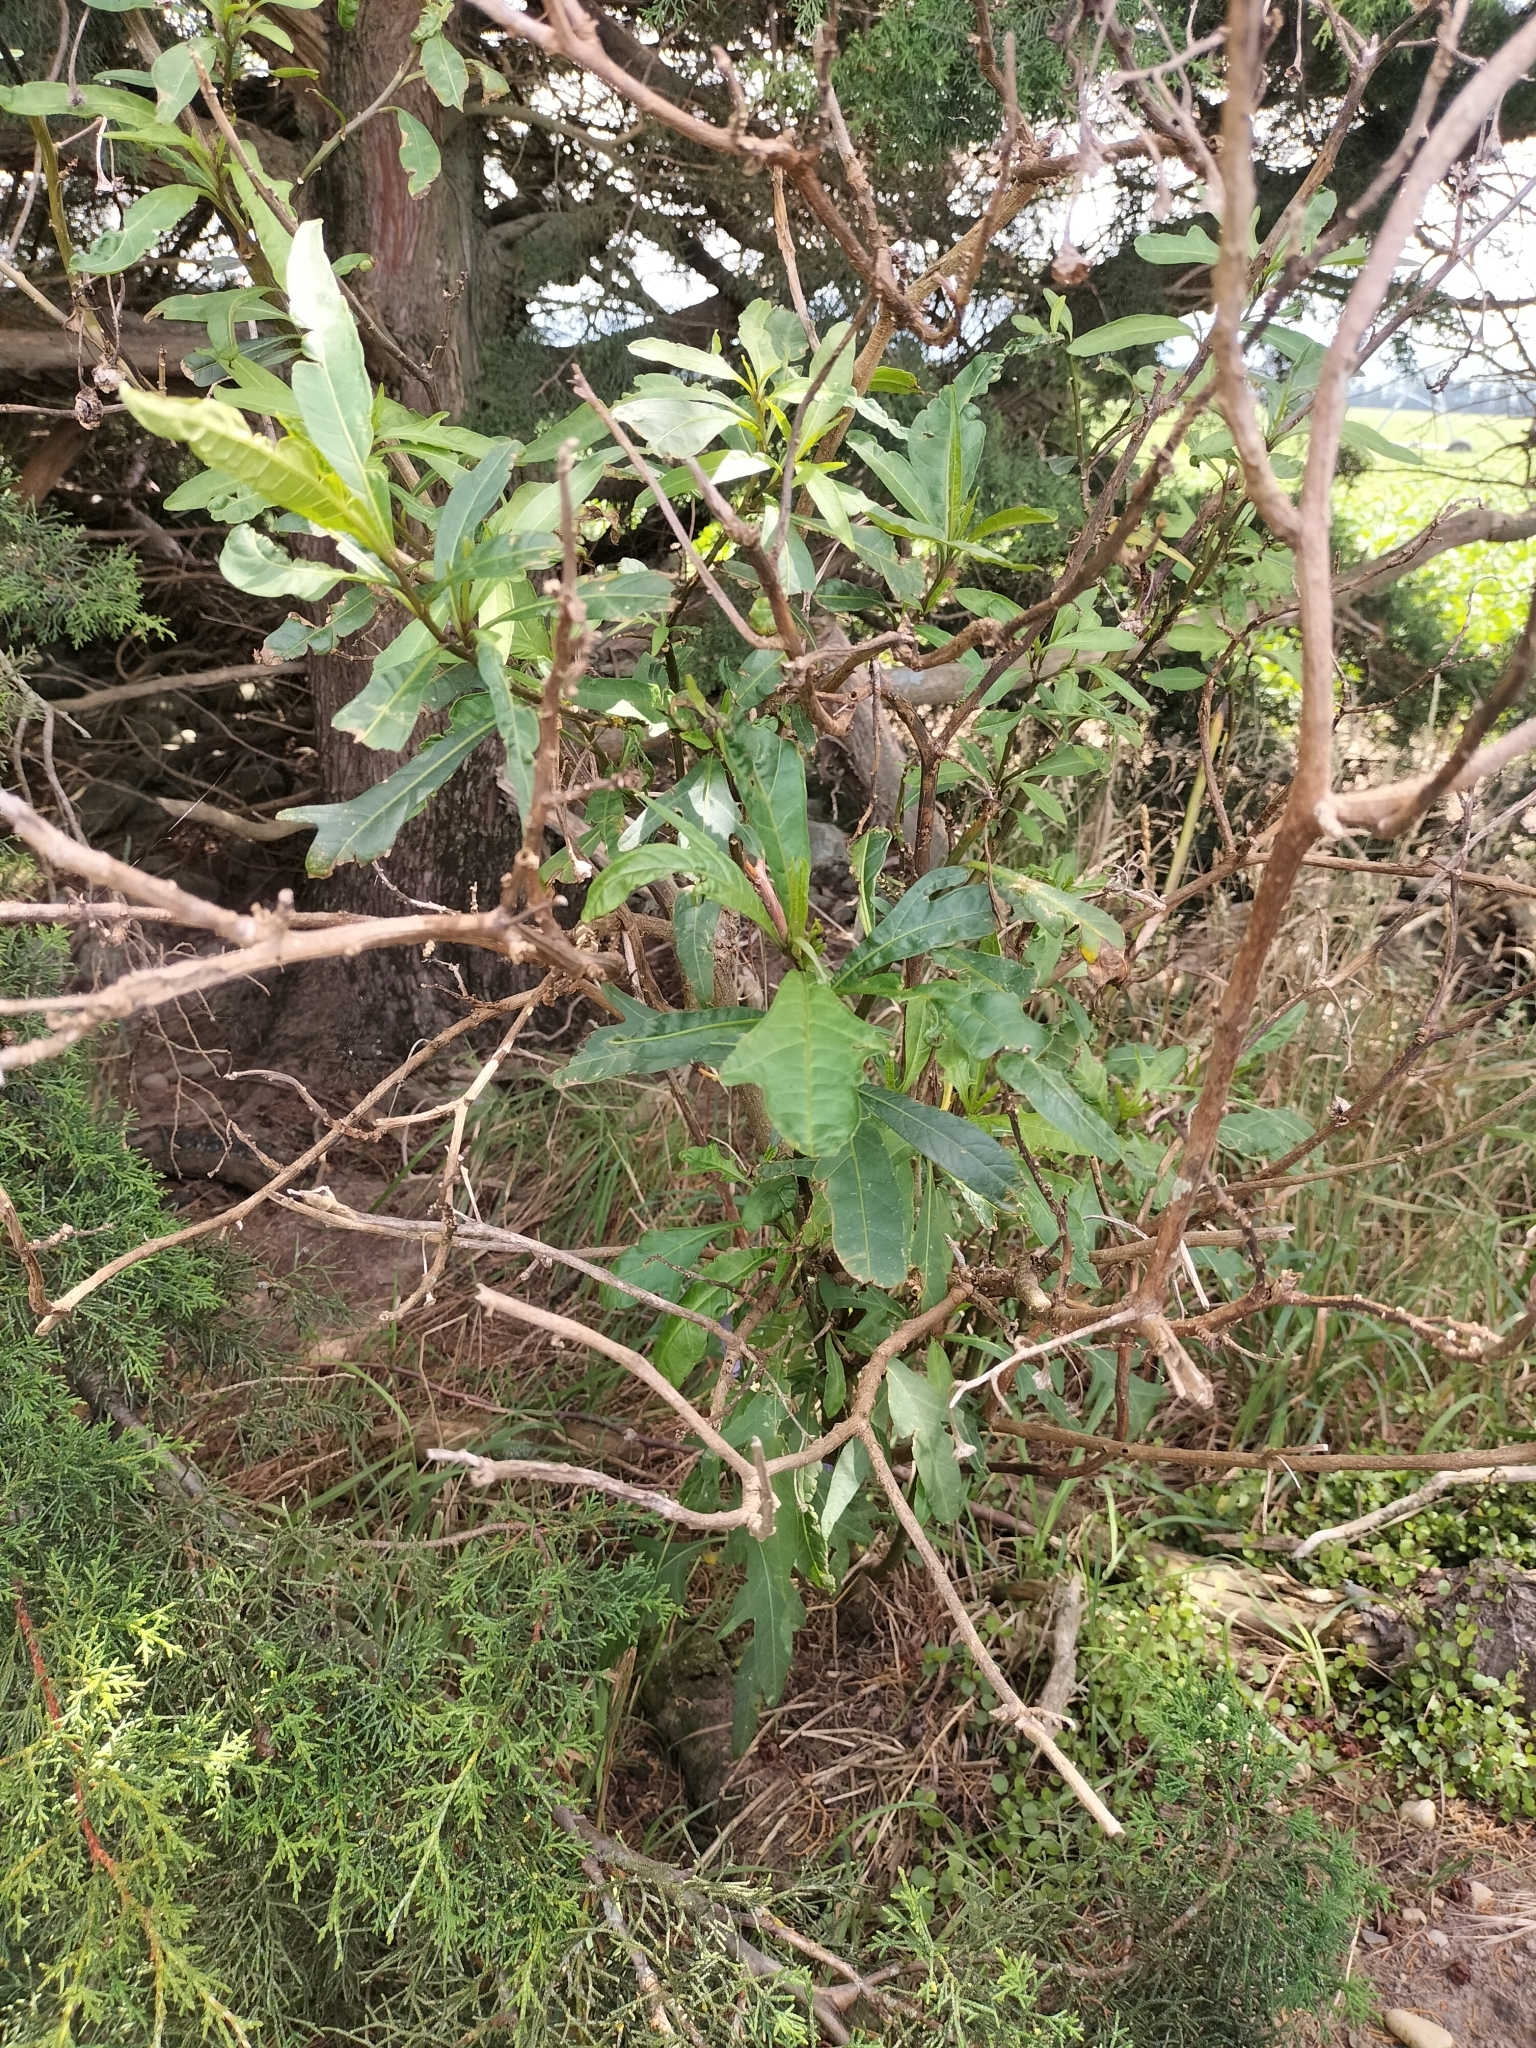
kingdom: Plantae
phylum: Tracheophyta
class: Magnoliopsida
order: Solanales
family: Solanaceae
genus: Solanum
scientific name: Solanum laciniatum
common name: Kangaroo-apple
